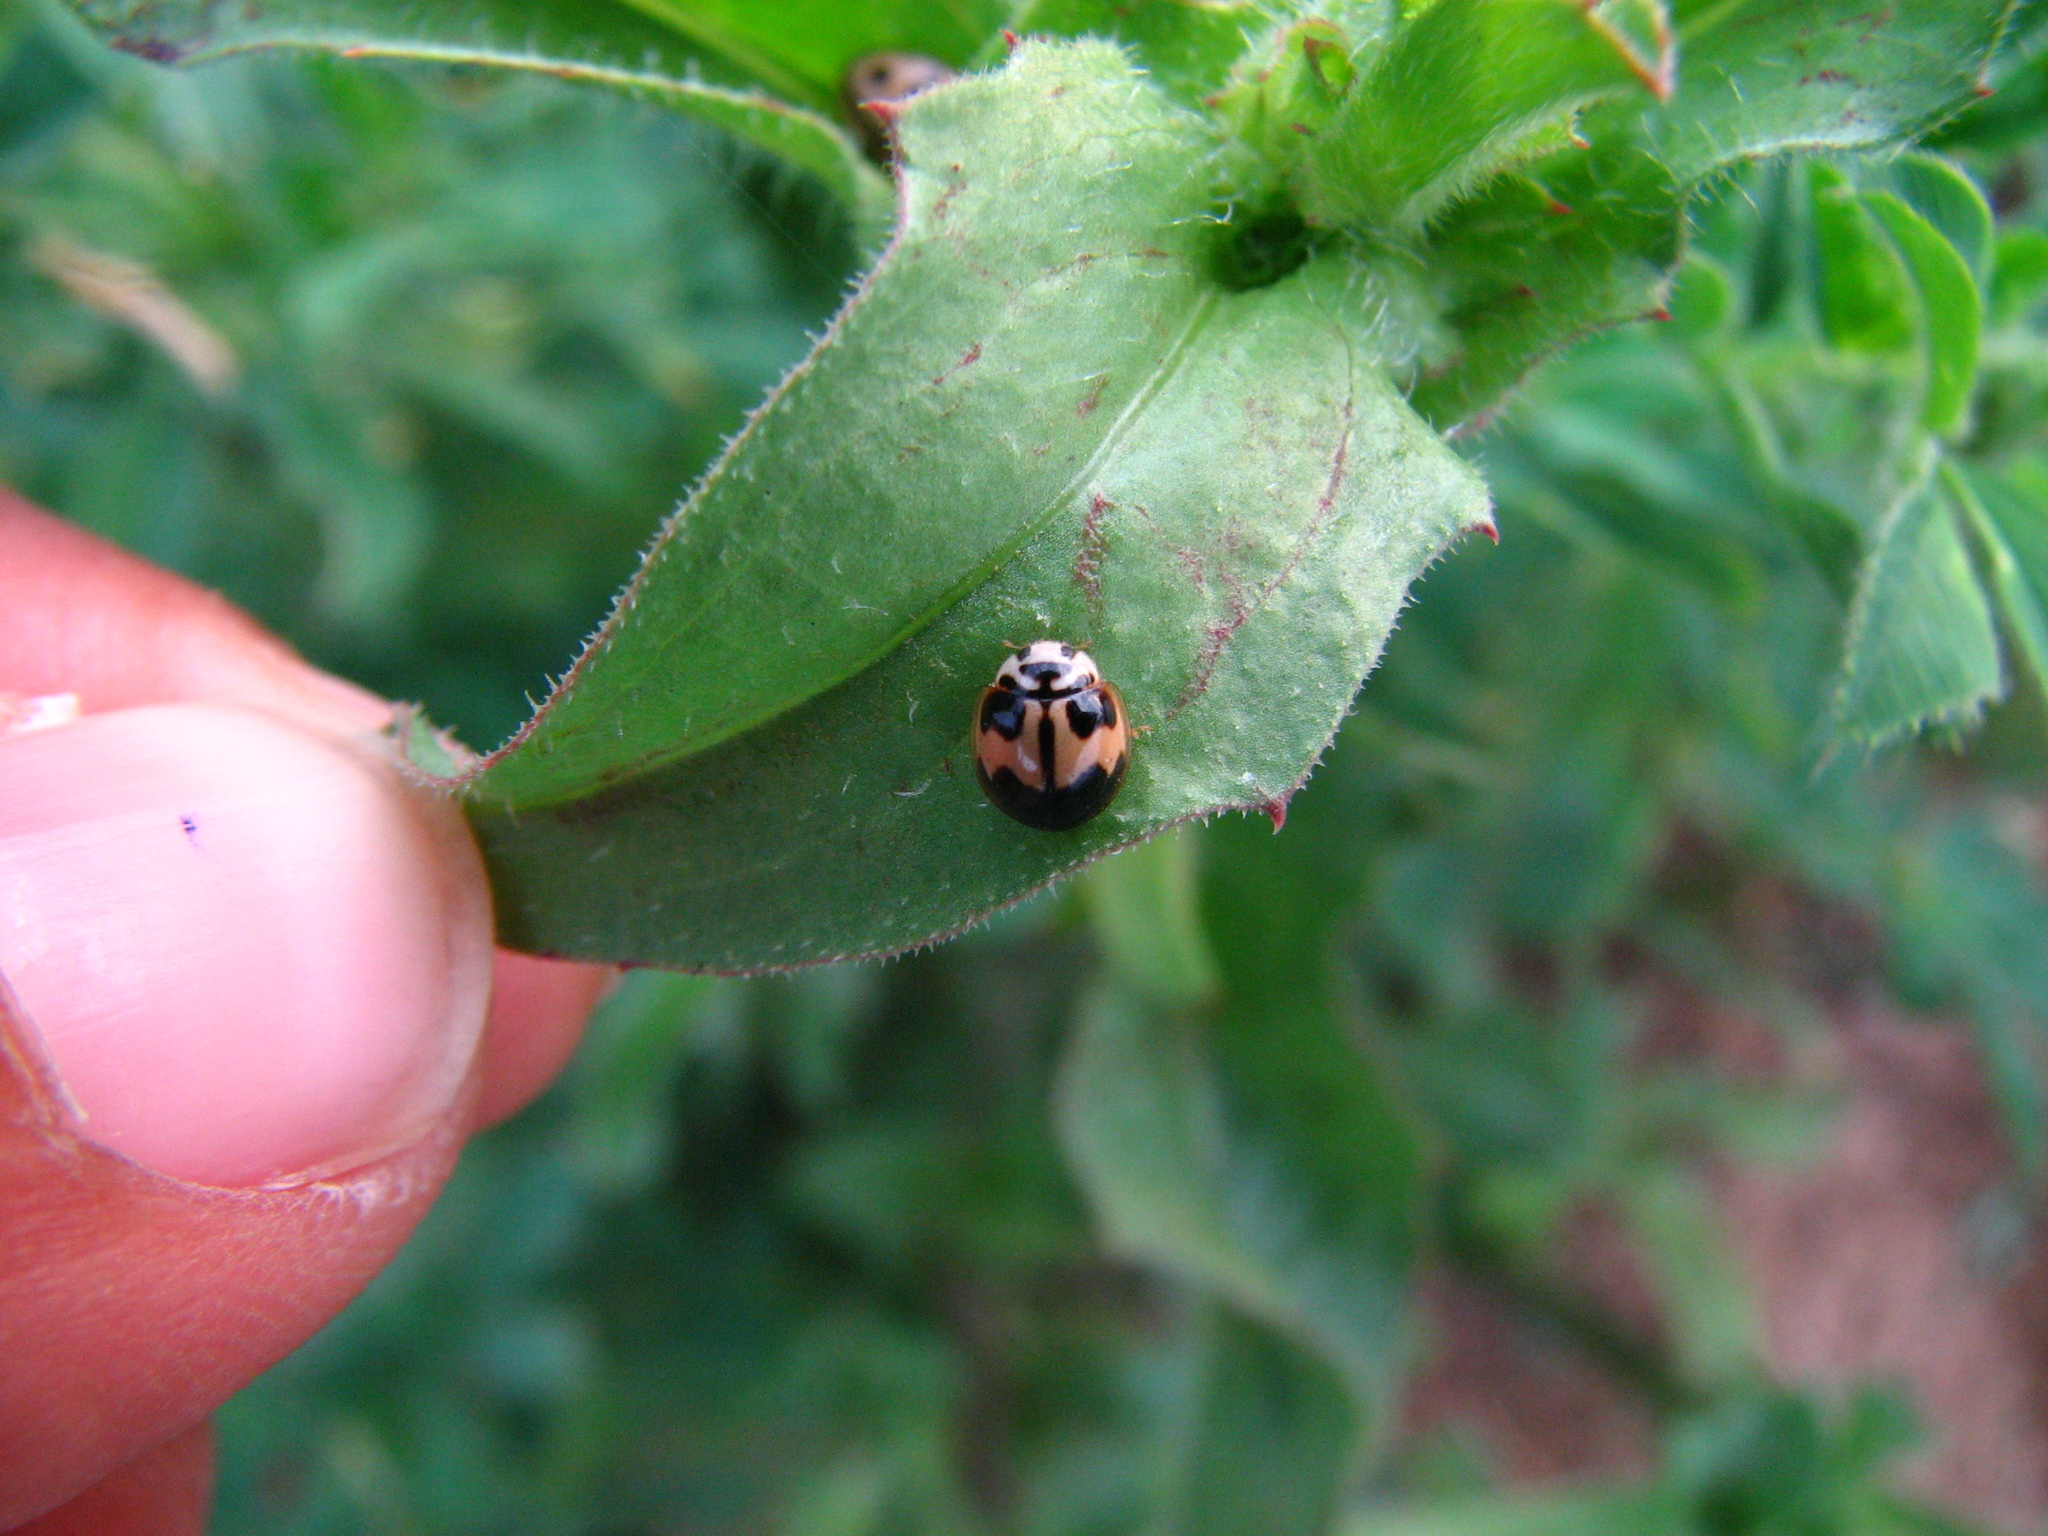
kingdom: Animalia
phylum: Arthropoda
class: Insecta
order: Coleoptera
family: Coccinellidae
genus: Cheilomenes
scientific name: Cheilomenes sexmaculata
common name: Ladybird beetle
